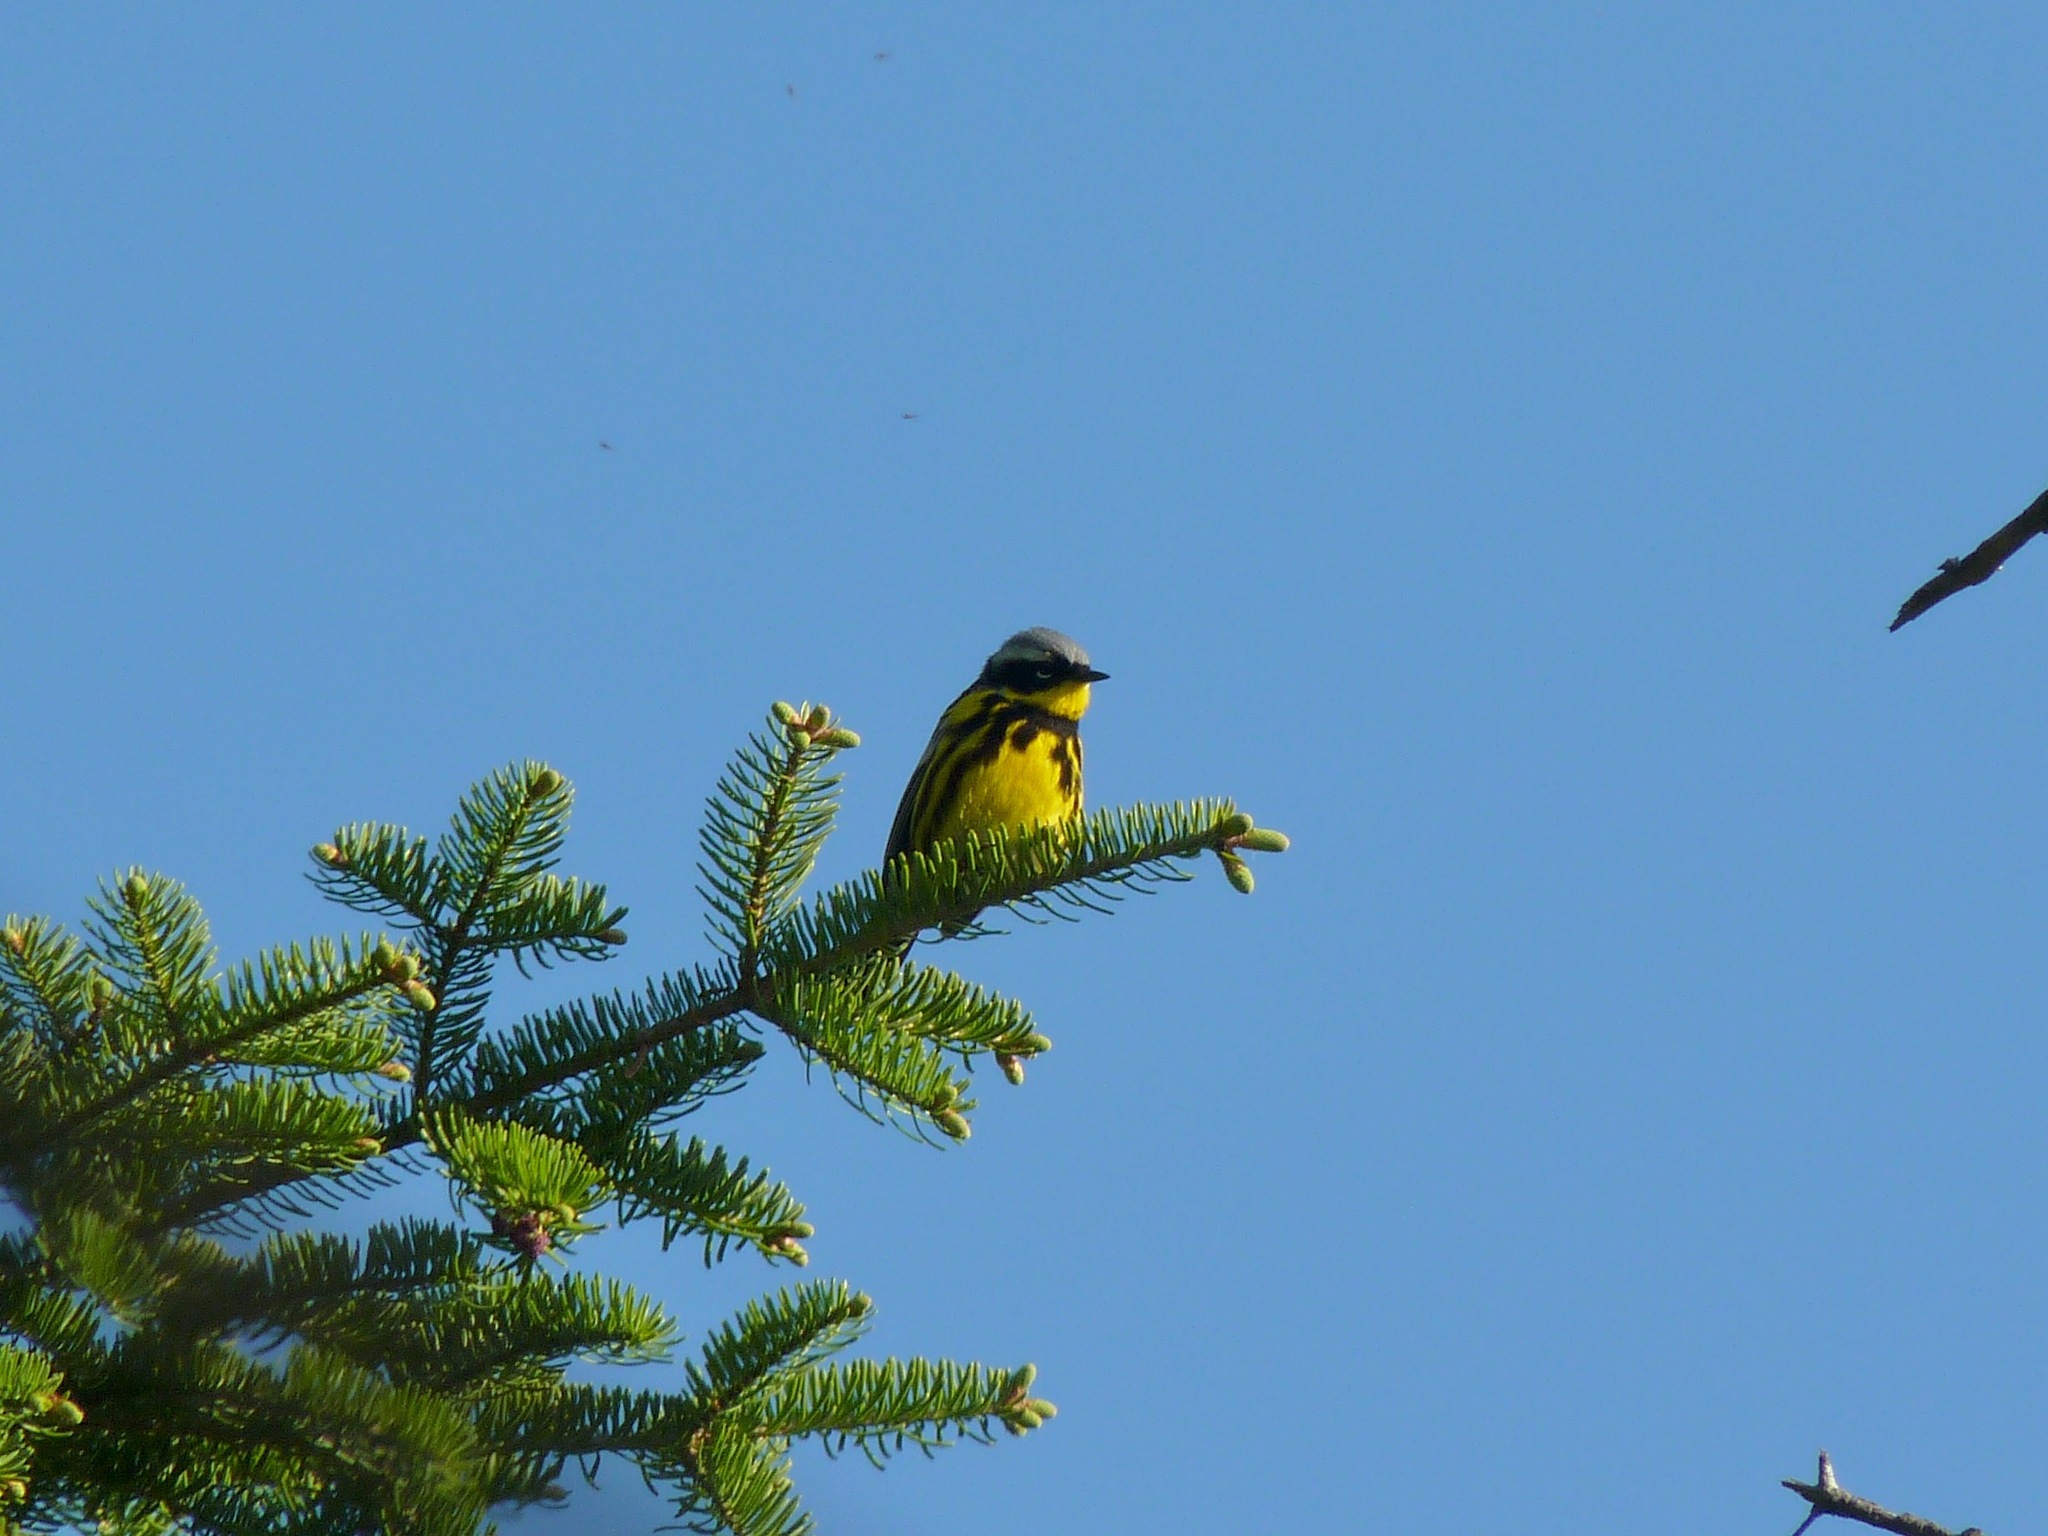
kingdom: Animalia
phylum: Chordata
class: Aves
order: Passeriformes
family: Parulidae
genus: Setophaga
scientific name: Setophaga magnolia
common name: Magnolia warbler
